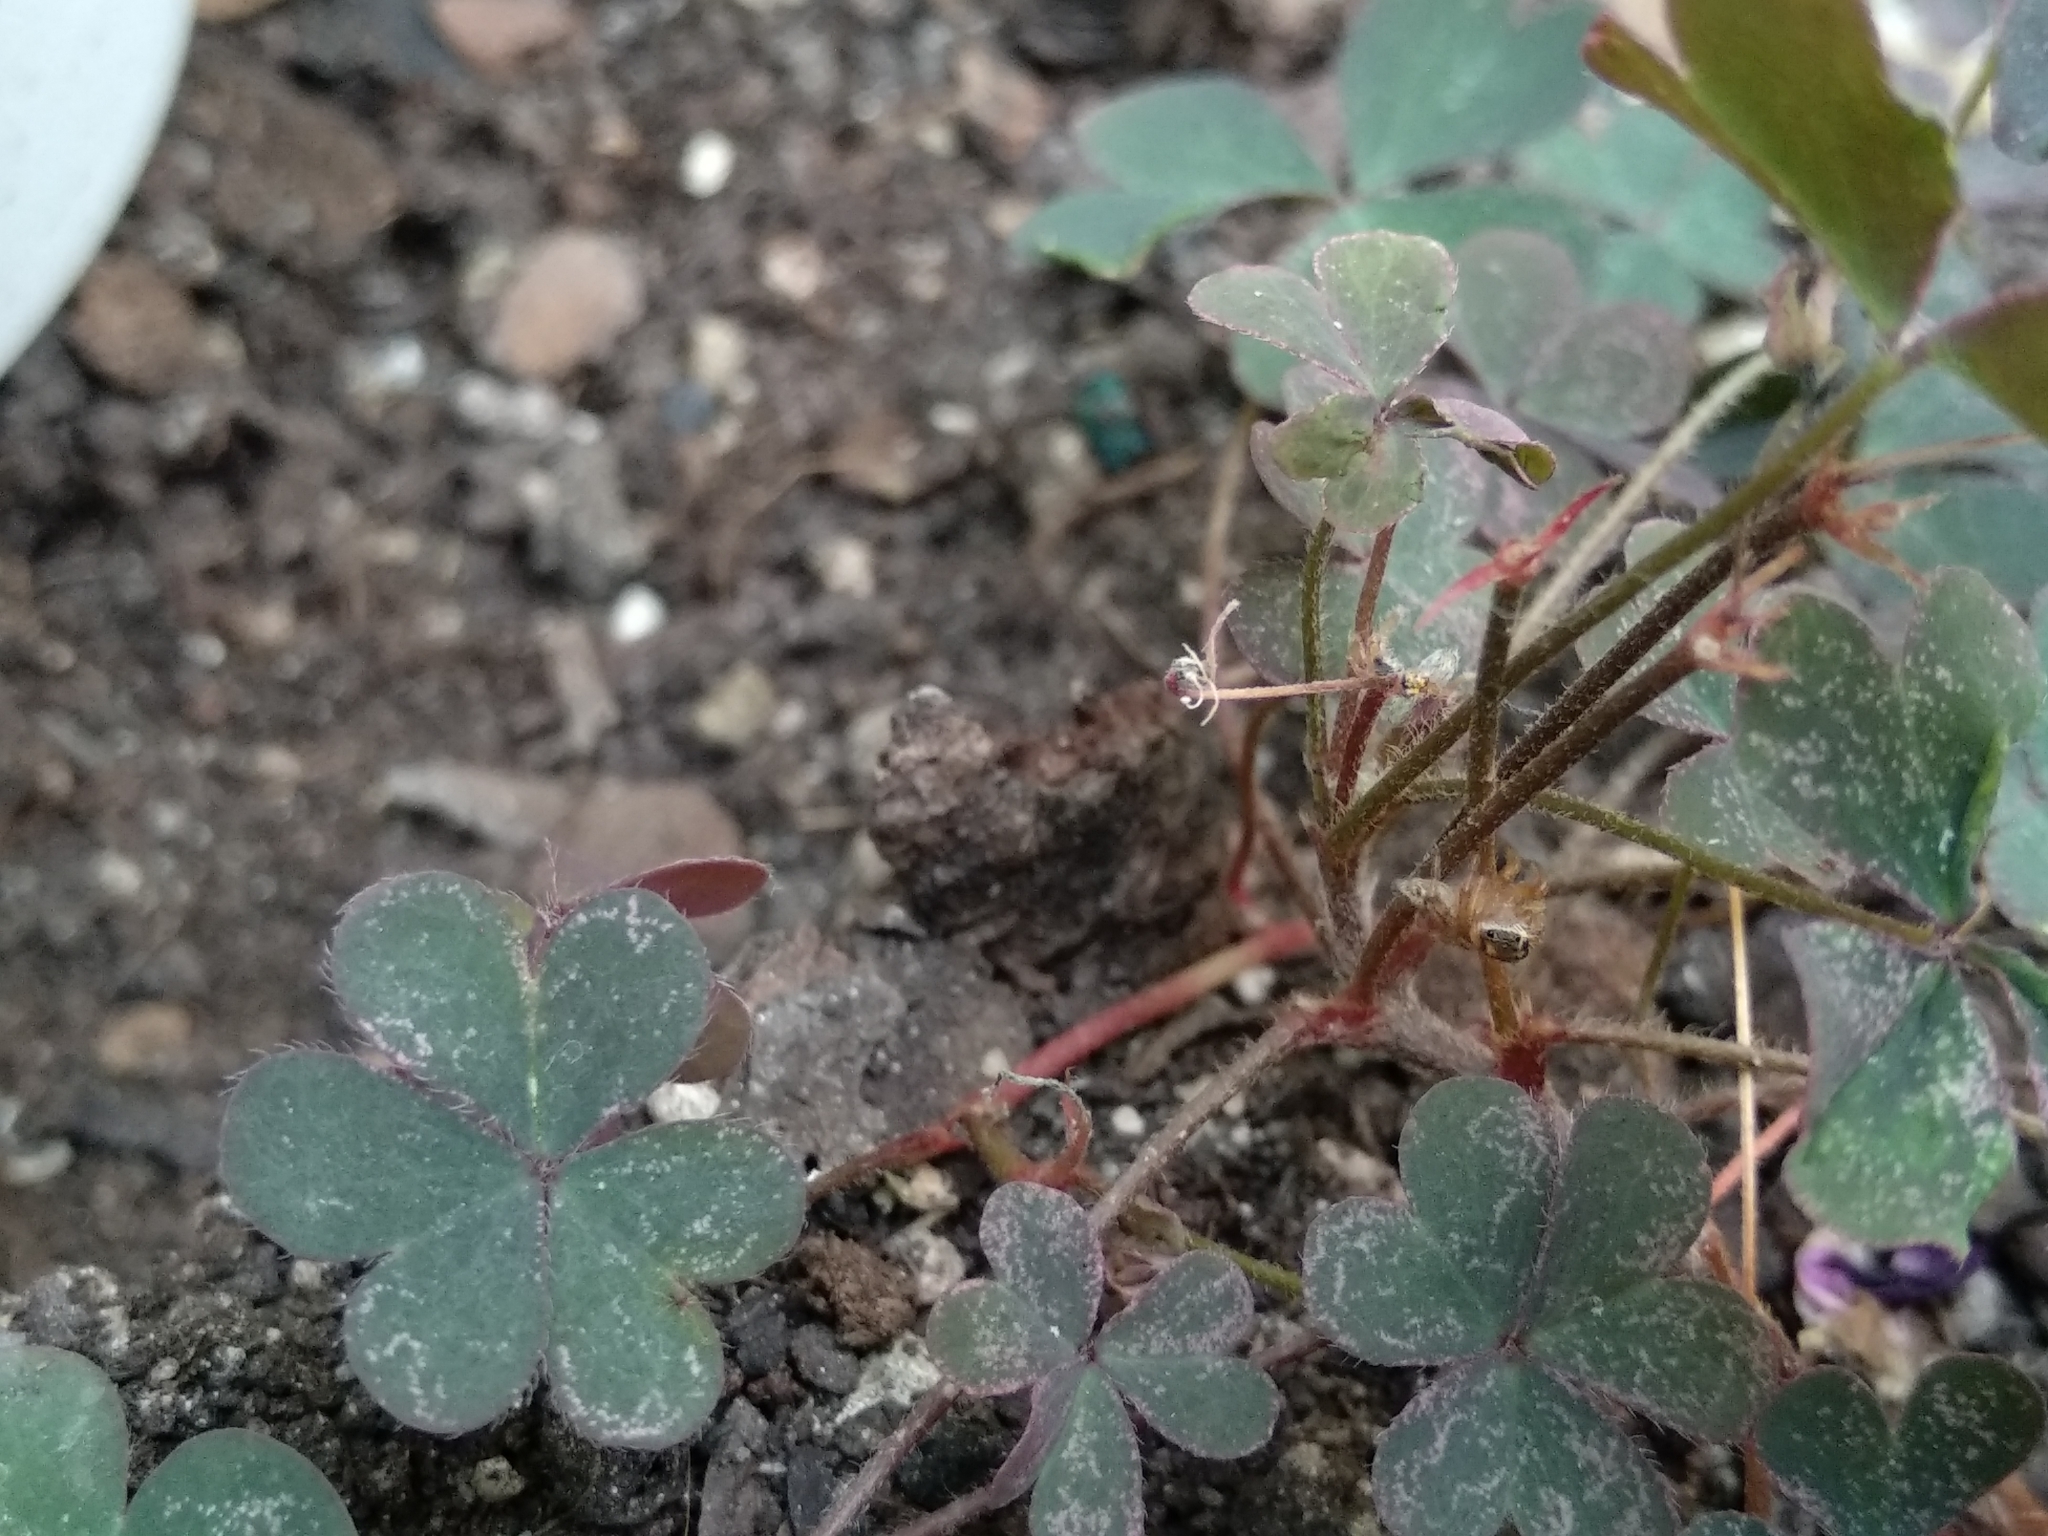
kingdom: Animalia
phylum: Arthropoda
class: Arachnida
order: Araneae
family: Salticidae
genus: Evarcha
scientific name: Evarcha jucunda
